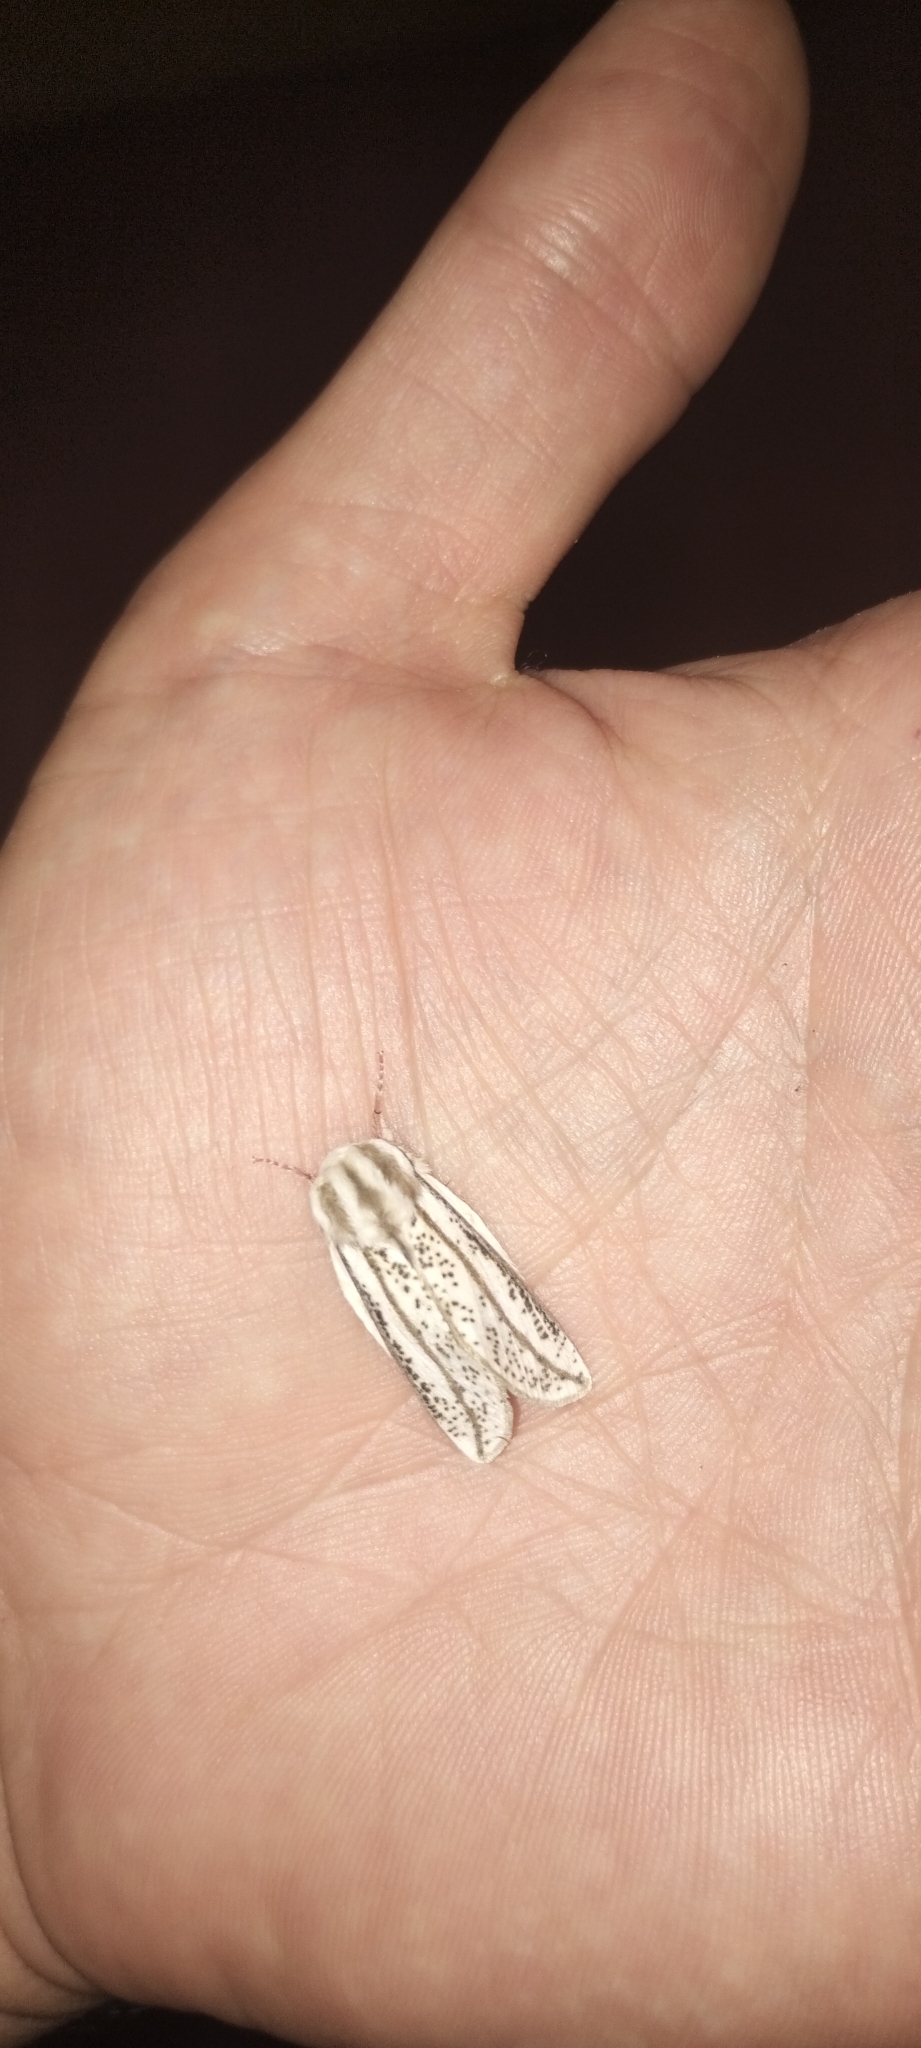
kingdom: Animalia
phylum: Arthropoda
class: Insecta
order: Lepidoptera
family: Saturniidae
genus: Giacomellia
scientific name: Giacomellia bilineata
